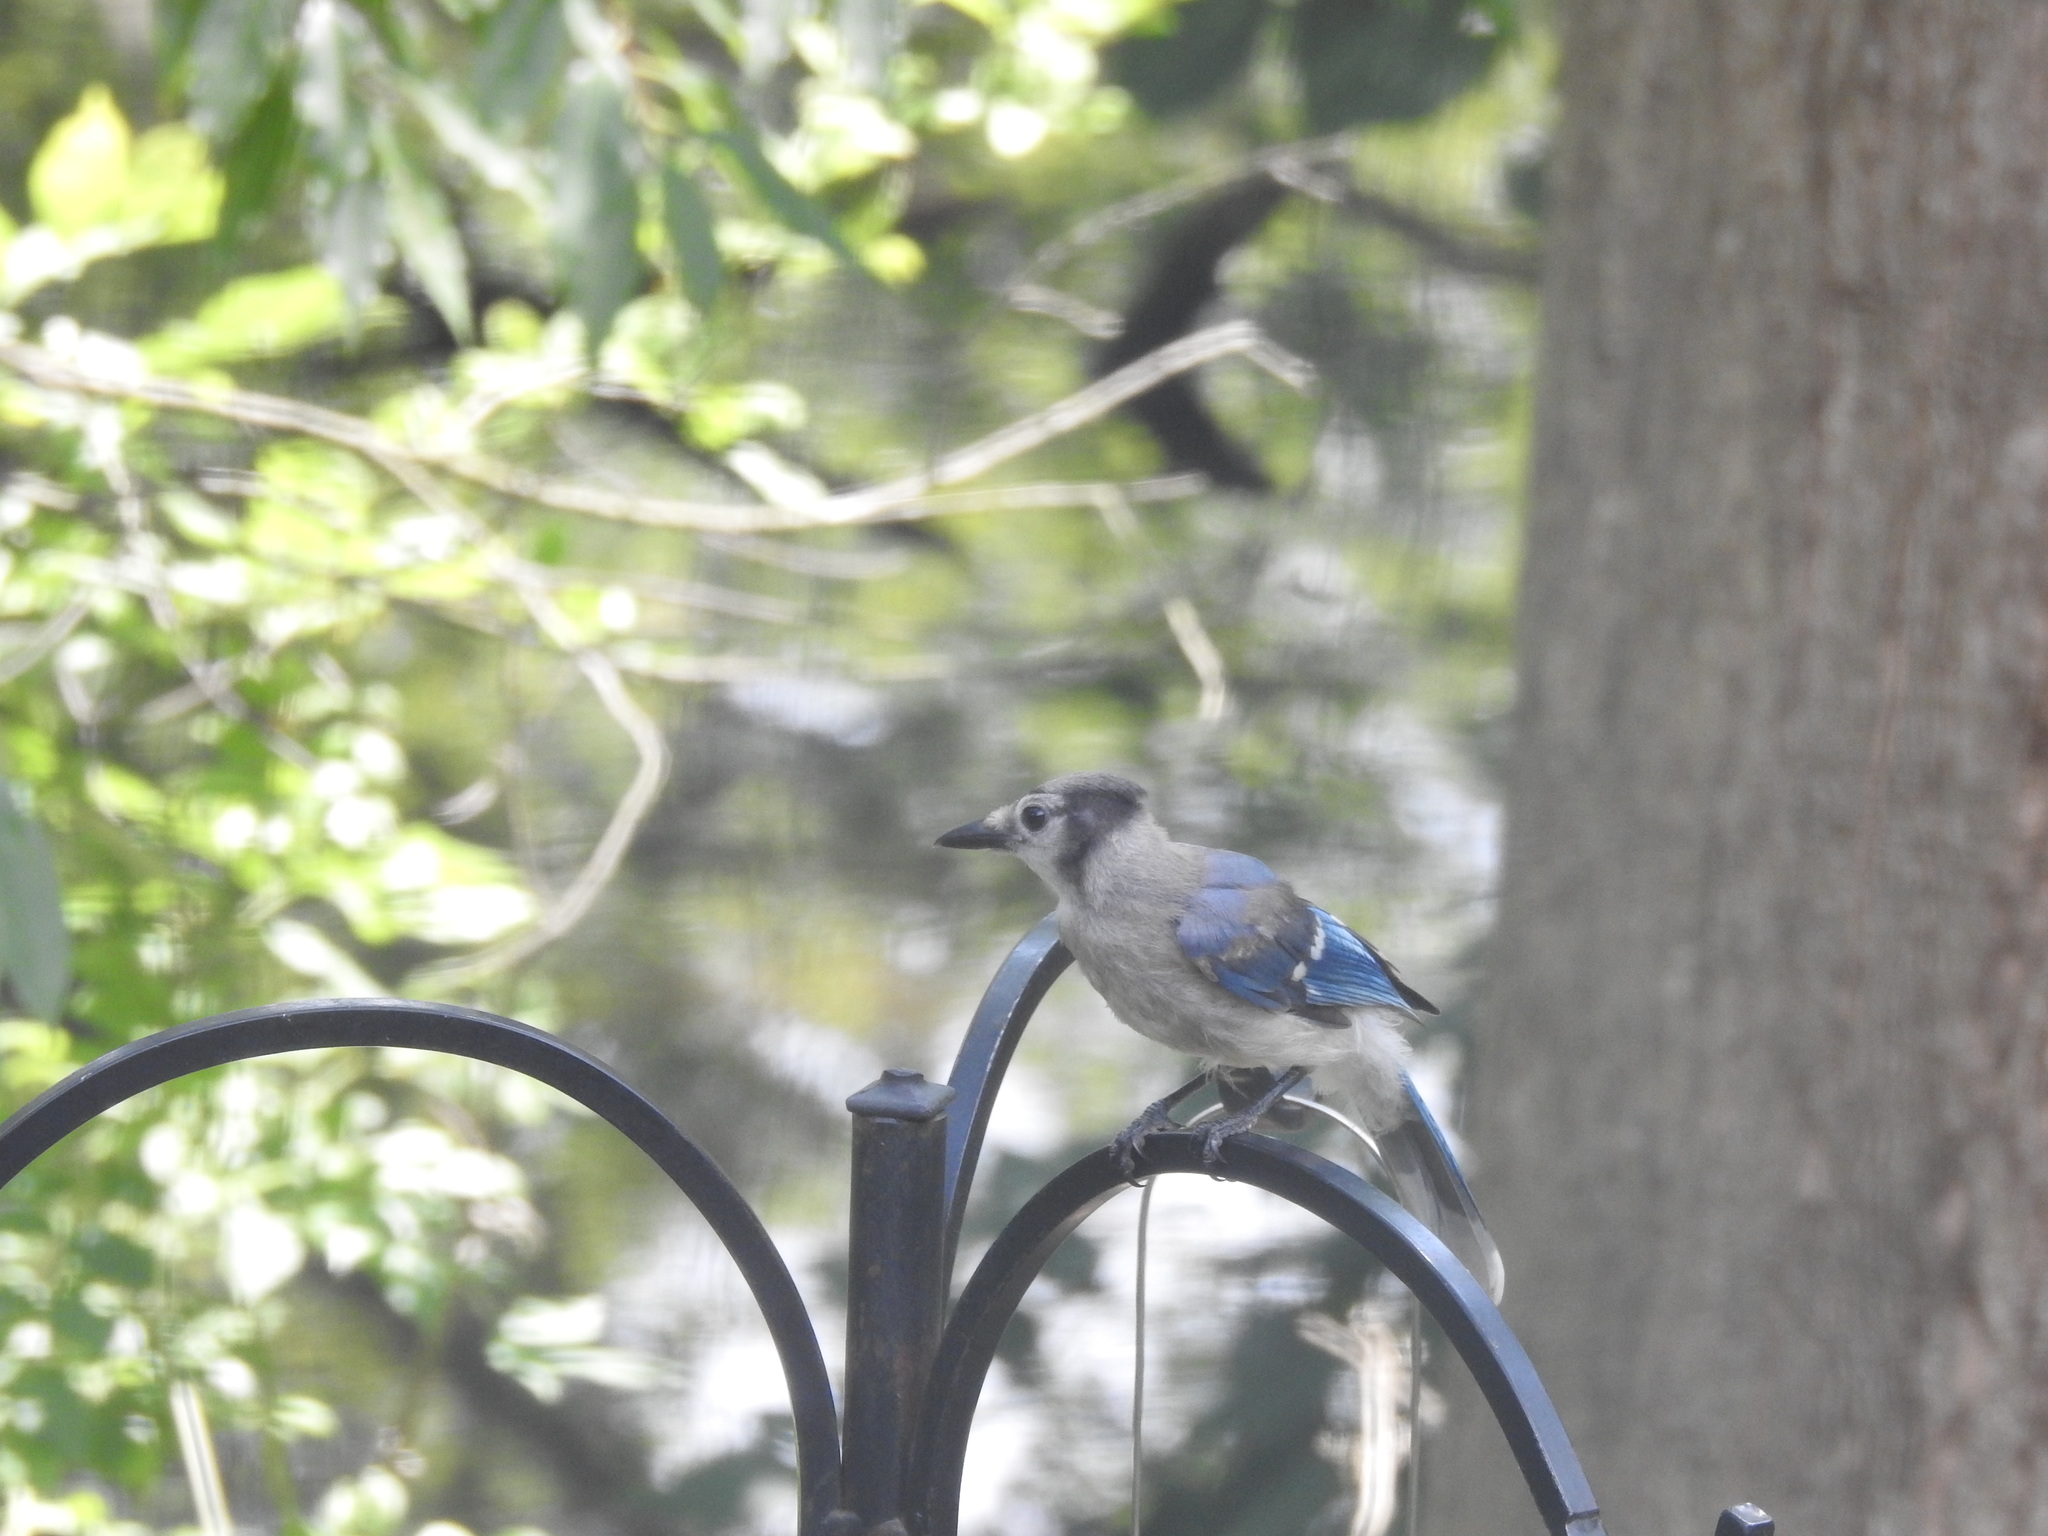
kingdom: Animalia
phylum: Chordata
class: Aves
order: Passeriformes
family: Corvidae
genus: Cyanocitta
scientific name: Cyanocitta cristata
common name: Blue jay
